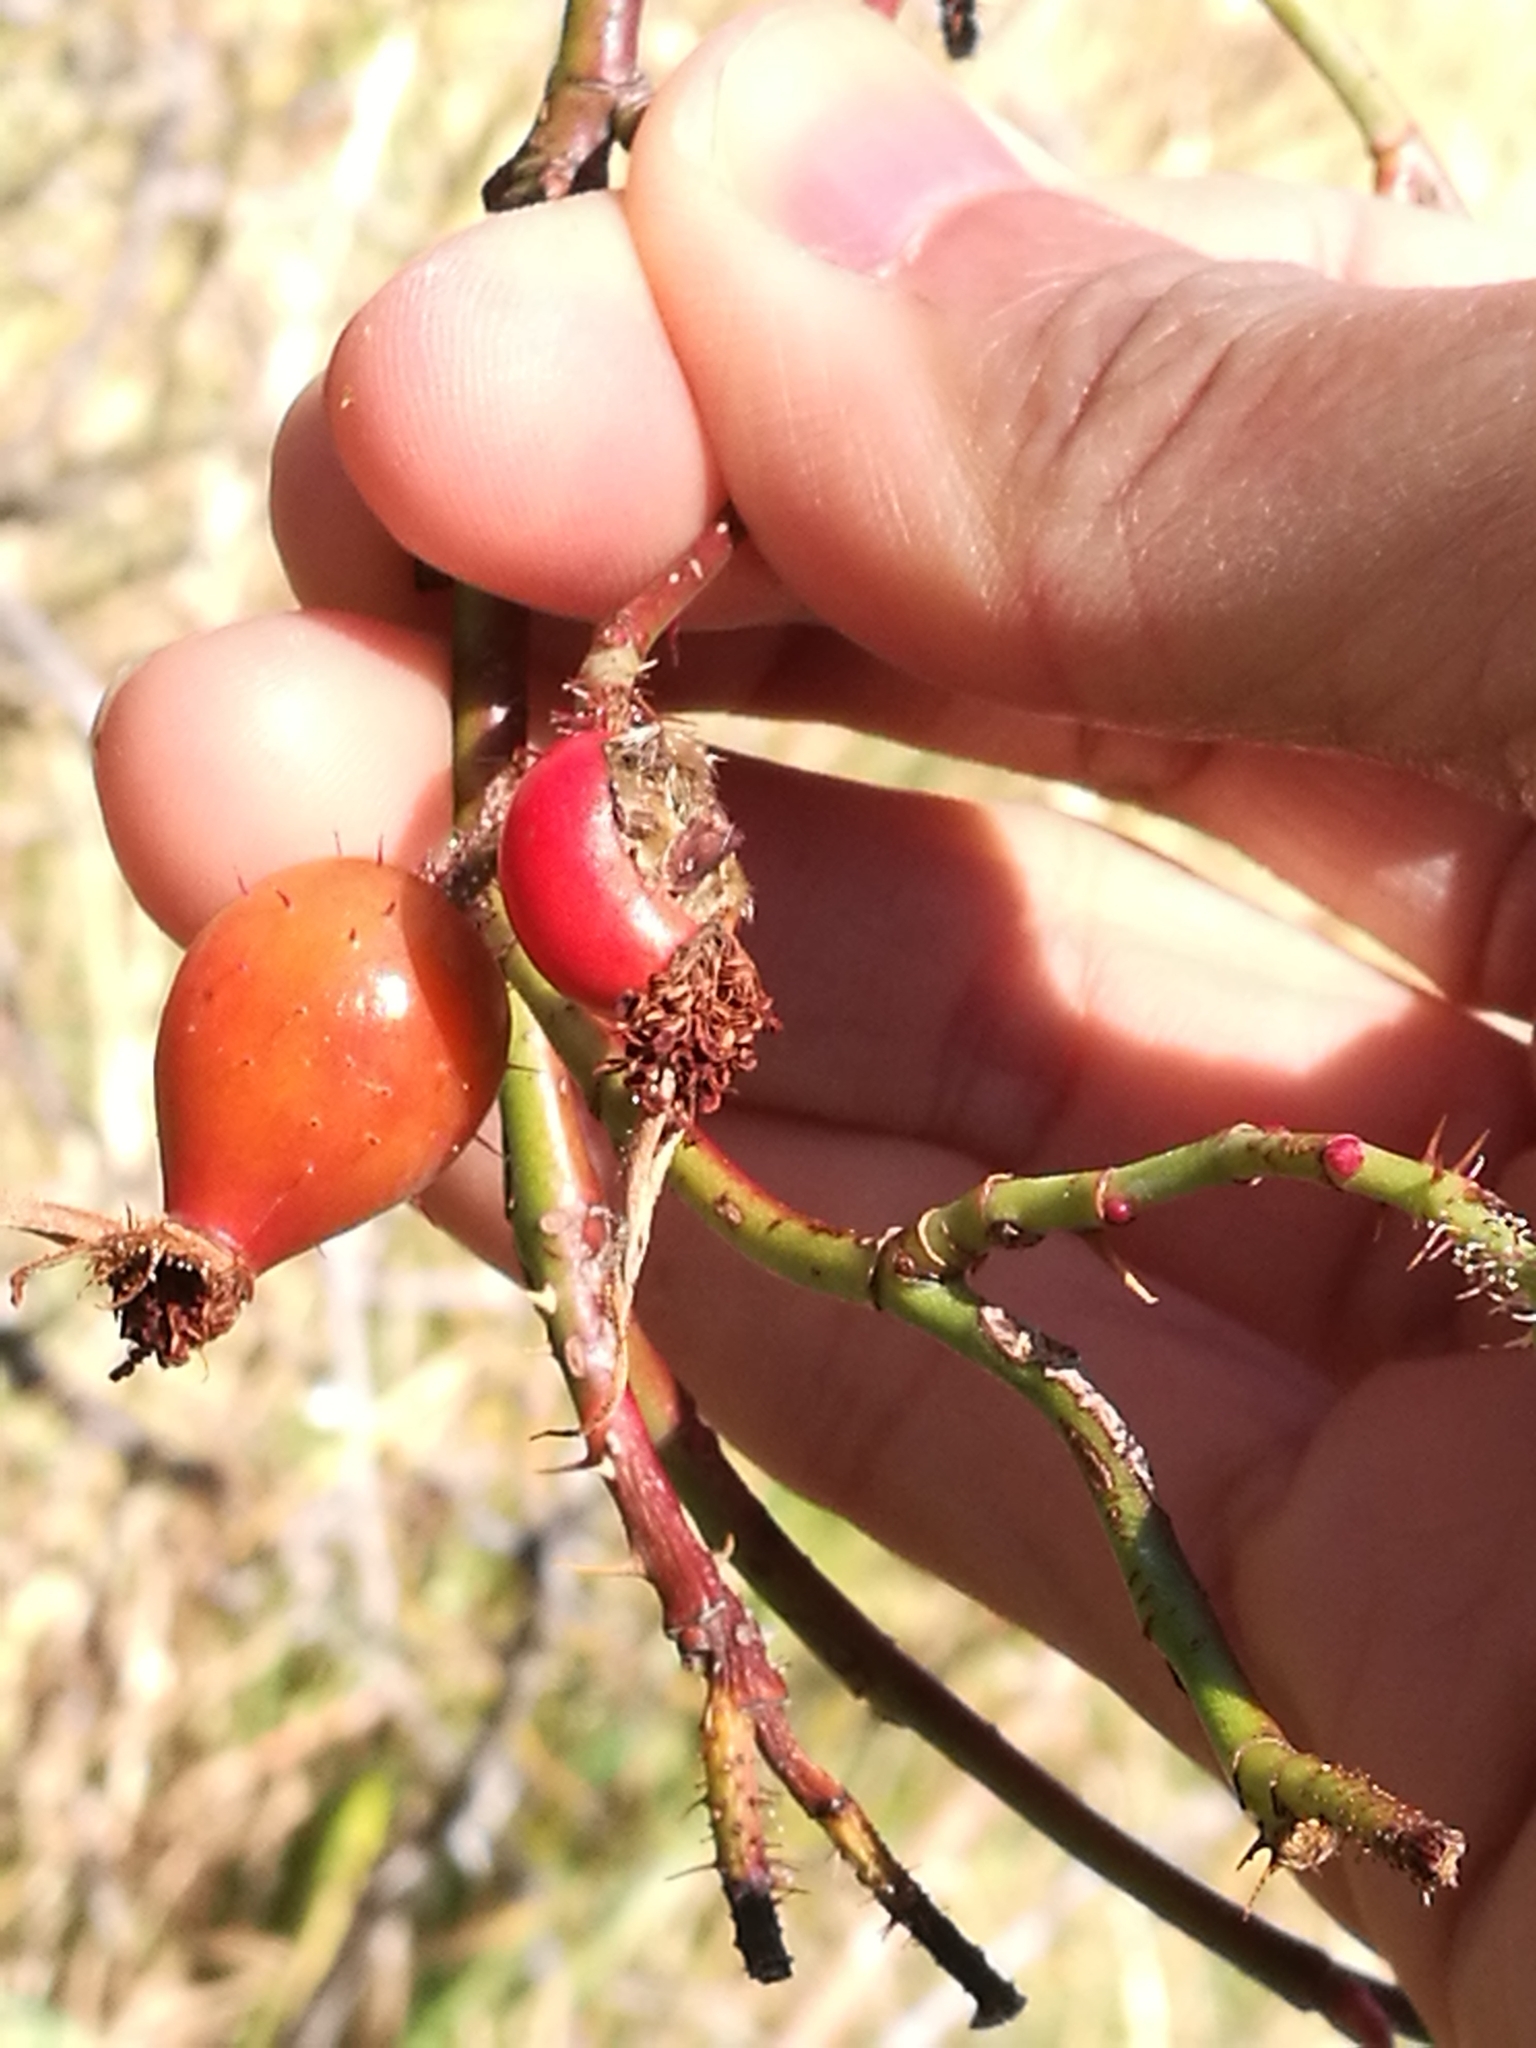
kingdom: Plantae
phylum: Tracheophyta
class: Magnoliopsida
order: Rosales
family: Rosaceae
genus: Rosa
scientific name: Rosa rubiginosa
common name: Sweet-briar
